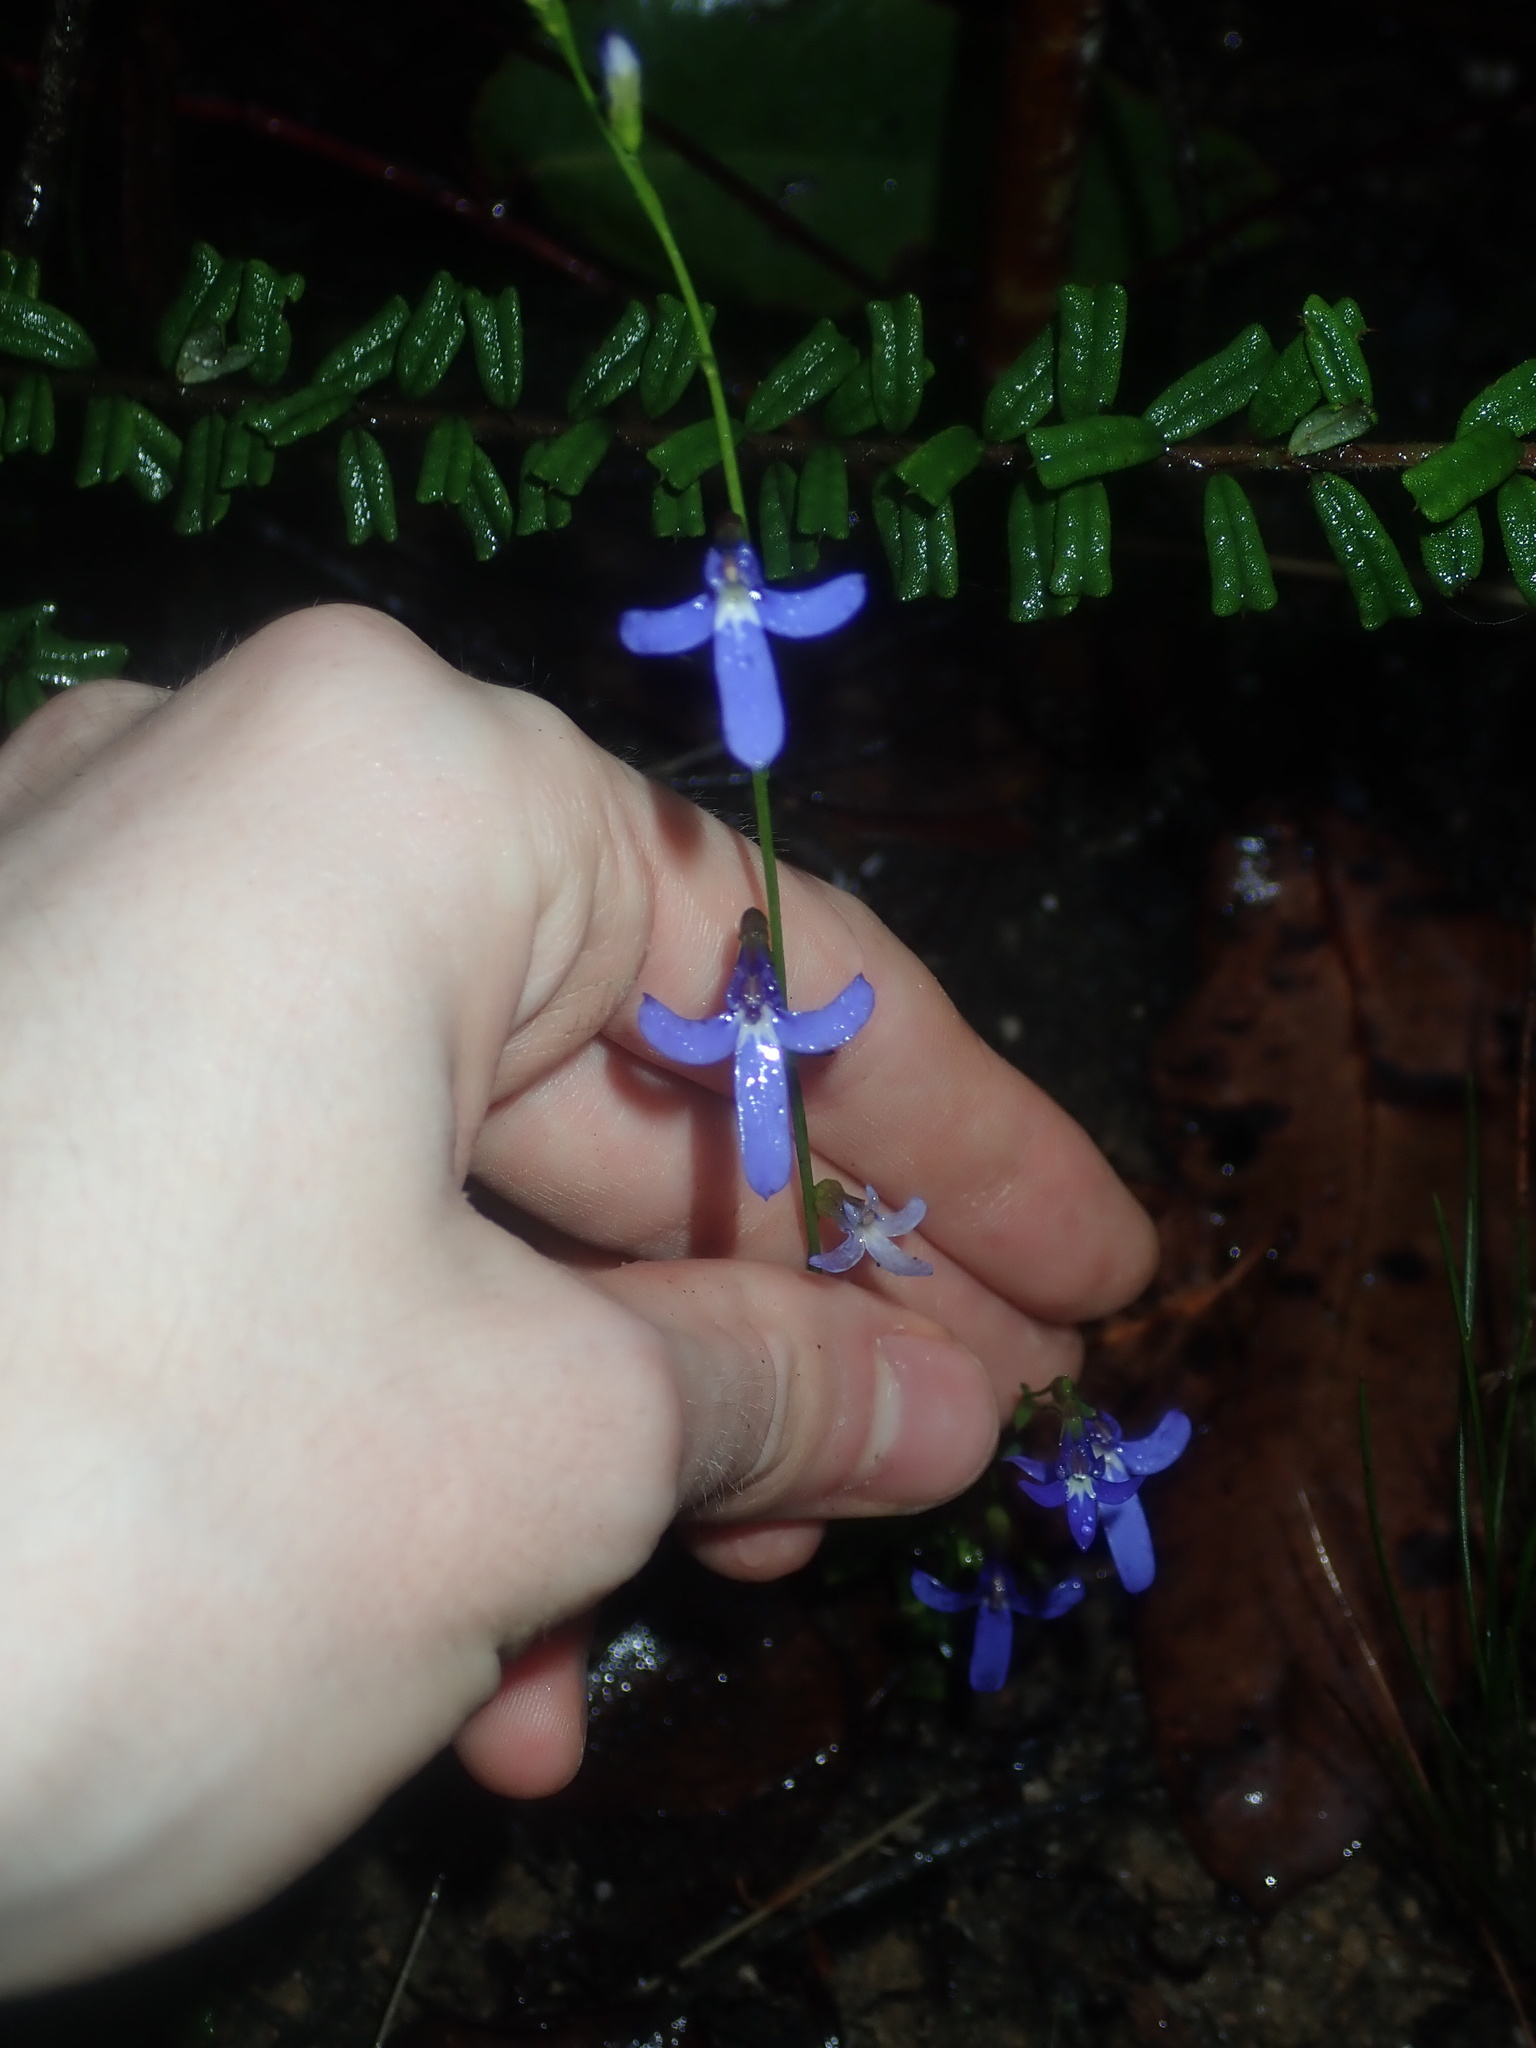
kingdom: Plantae
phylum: Tracheophyta
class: Magnoliopsida
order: Asterales
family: Campanulaceae
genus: Lobelia
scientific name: Lobelia dentata
